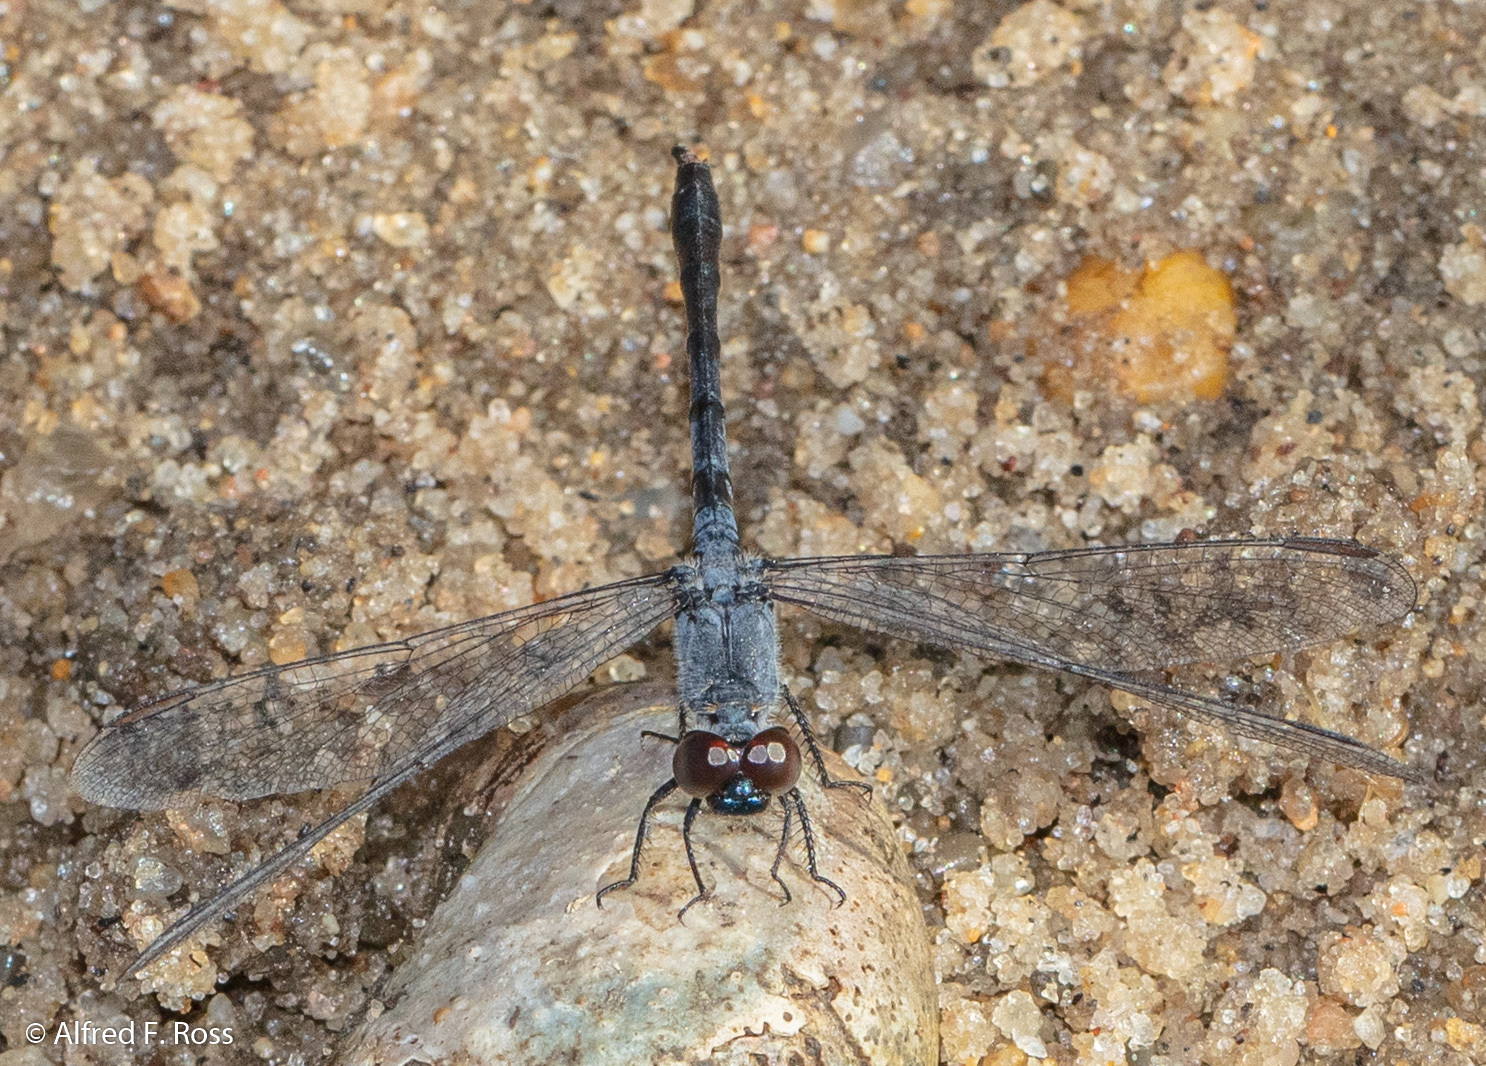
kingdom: Animalia
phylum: Arthropoda
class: Insecta
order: Odonata
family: Libellulidae
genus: Erythrodiplax
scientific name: Erythrodiplax berenice
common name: Seaside dragonlet
